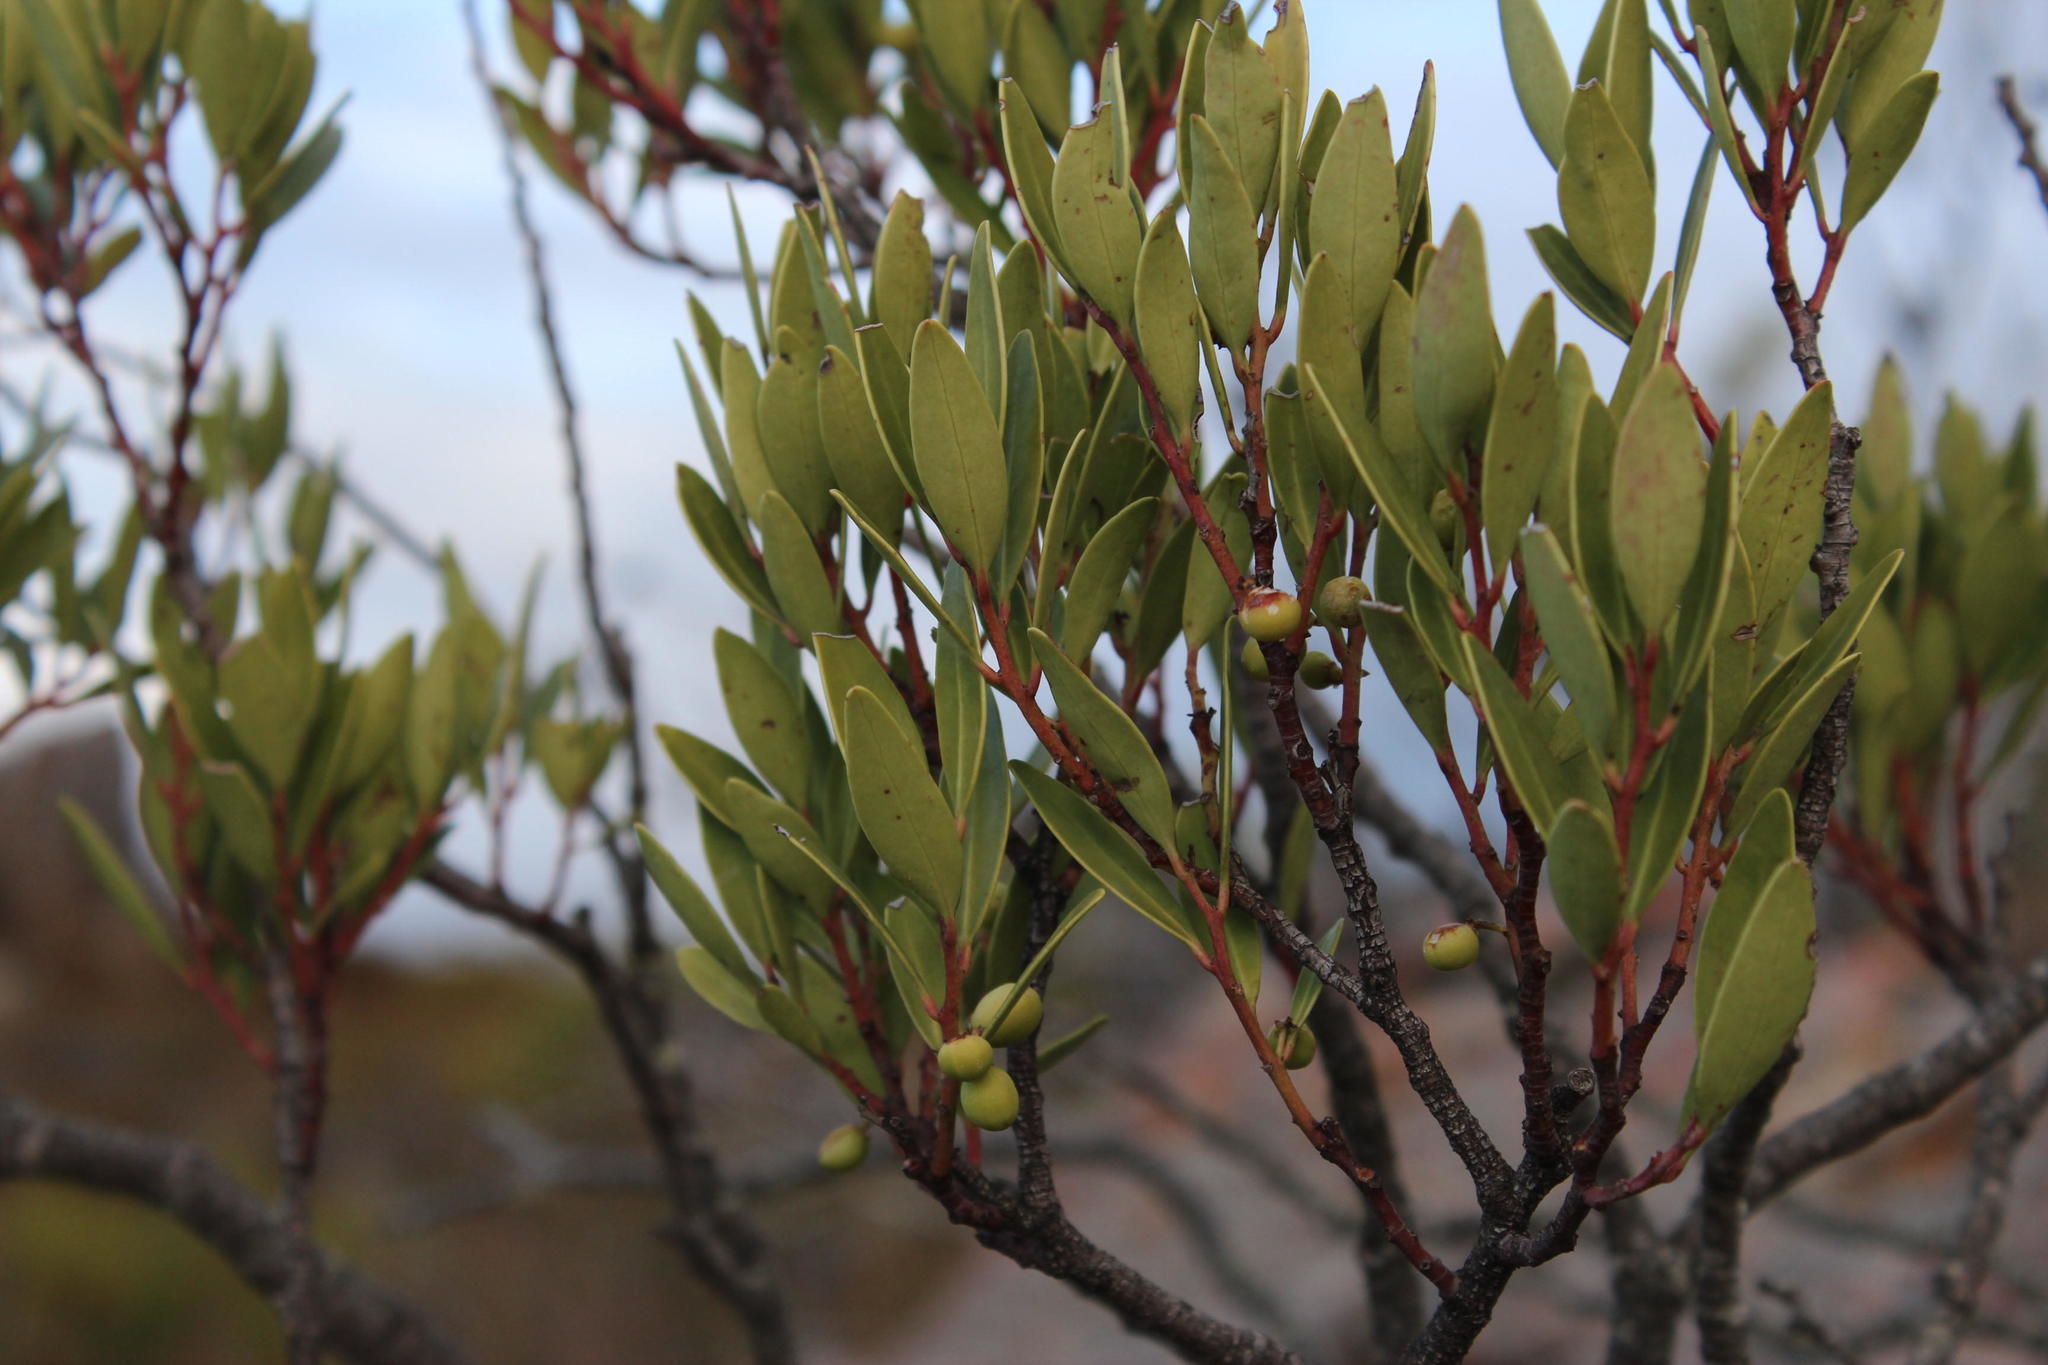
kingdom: Plantae
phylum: Tracheophyta
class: Magnoliopsida
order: Celastrales
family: Celastraceae
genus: Gymnosporia
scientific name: Gymnosporia laurina
